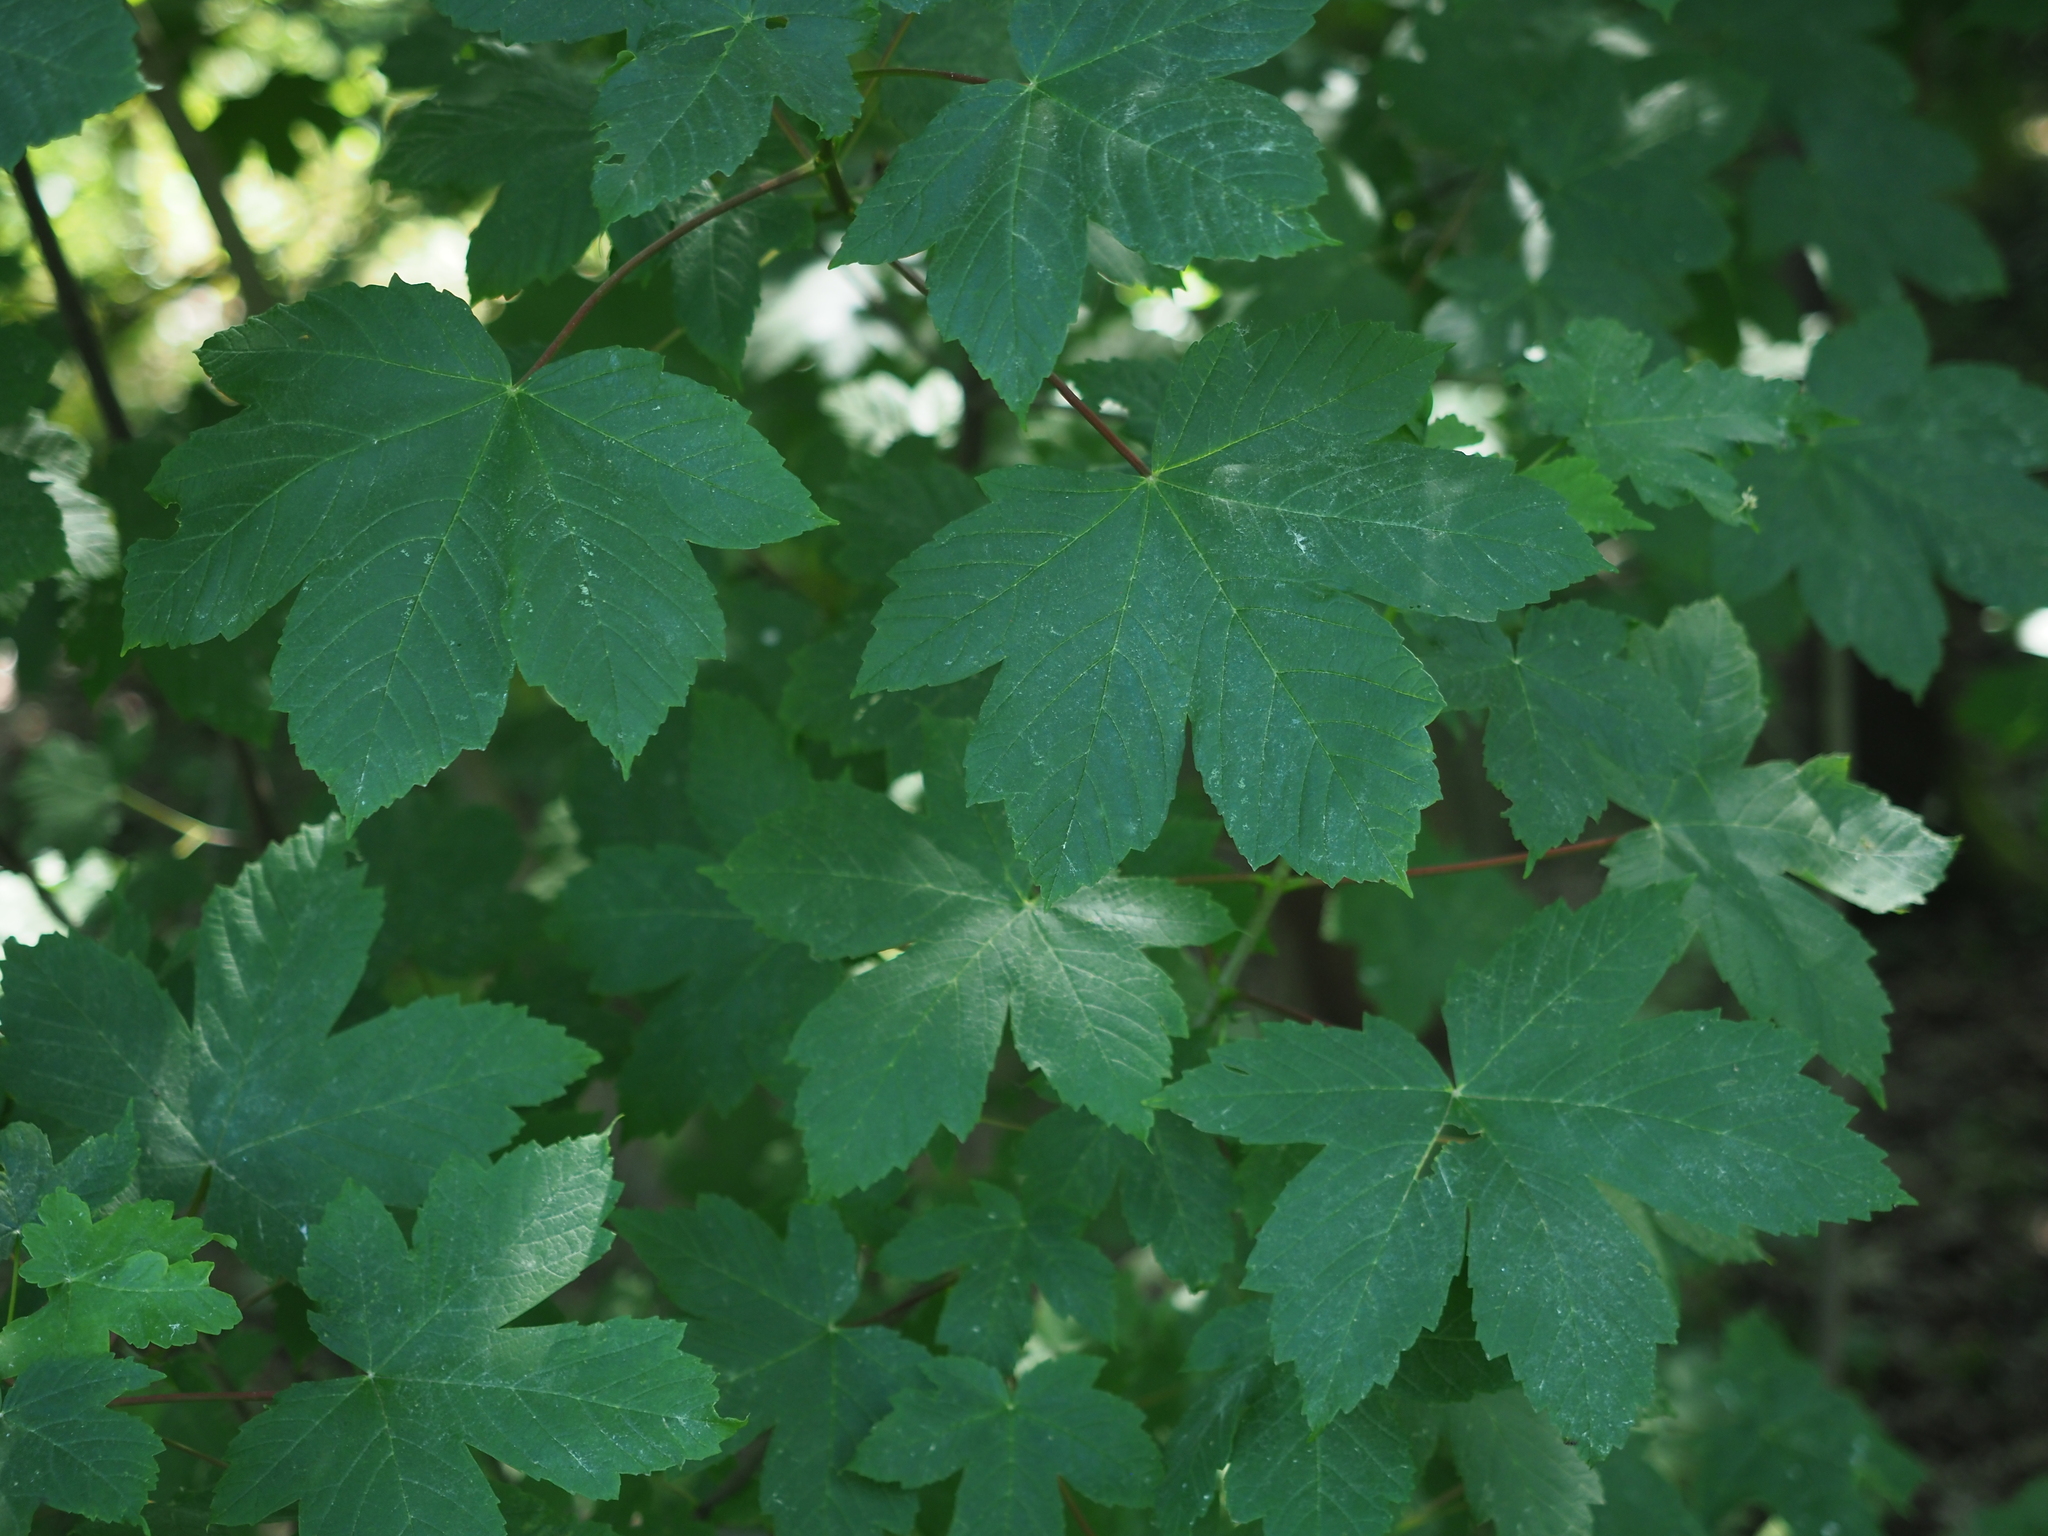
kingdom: Plantae
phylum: Tracheophyta
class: Magnoliopsida
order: Sapindales
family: Sapindaceae
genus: Acer
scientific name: Acer pseudoplatanus
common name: Sycamore
